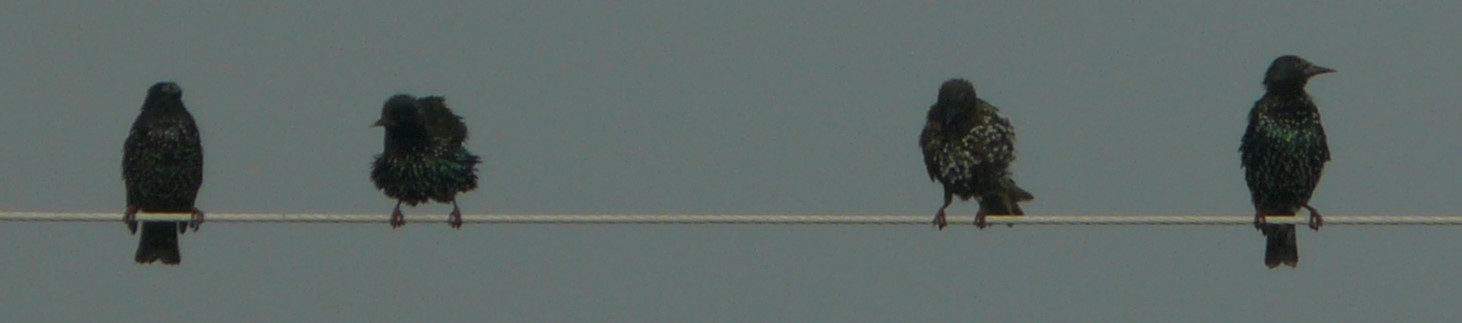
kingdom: Animalia
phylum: Chordata
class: Aves
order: Passeriformes
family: Sturnidae
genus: Sturnus
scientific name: Sturnus vulgaris
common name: Common starling
